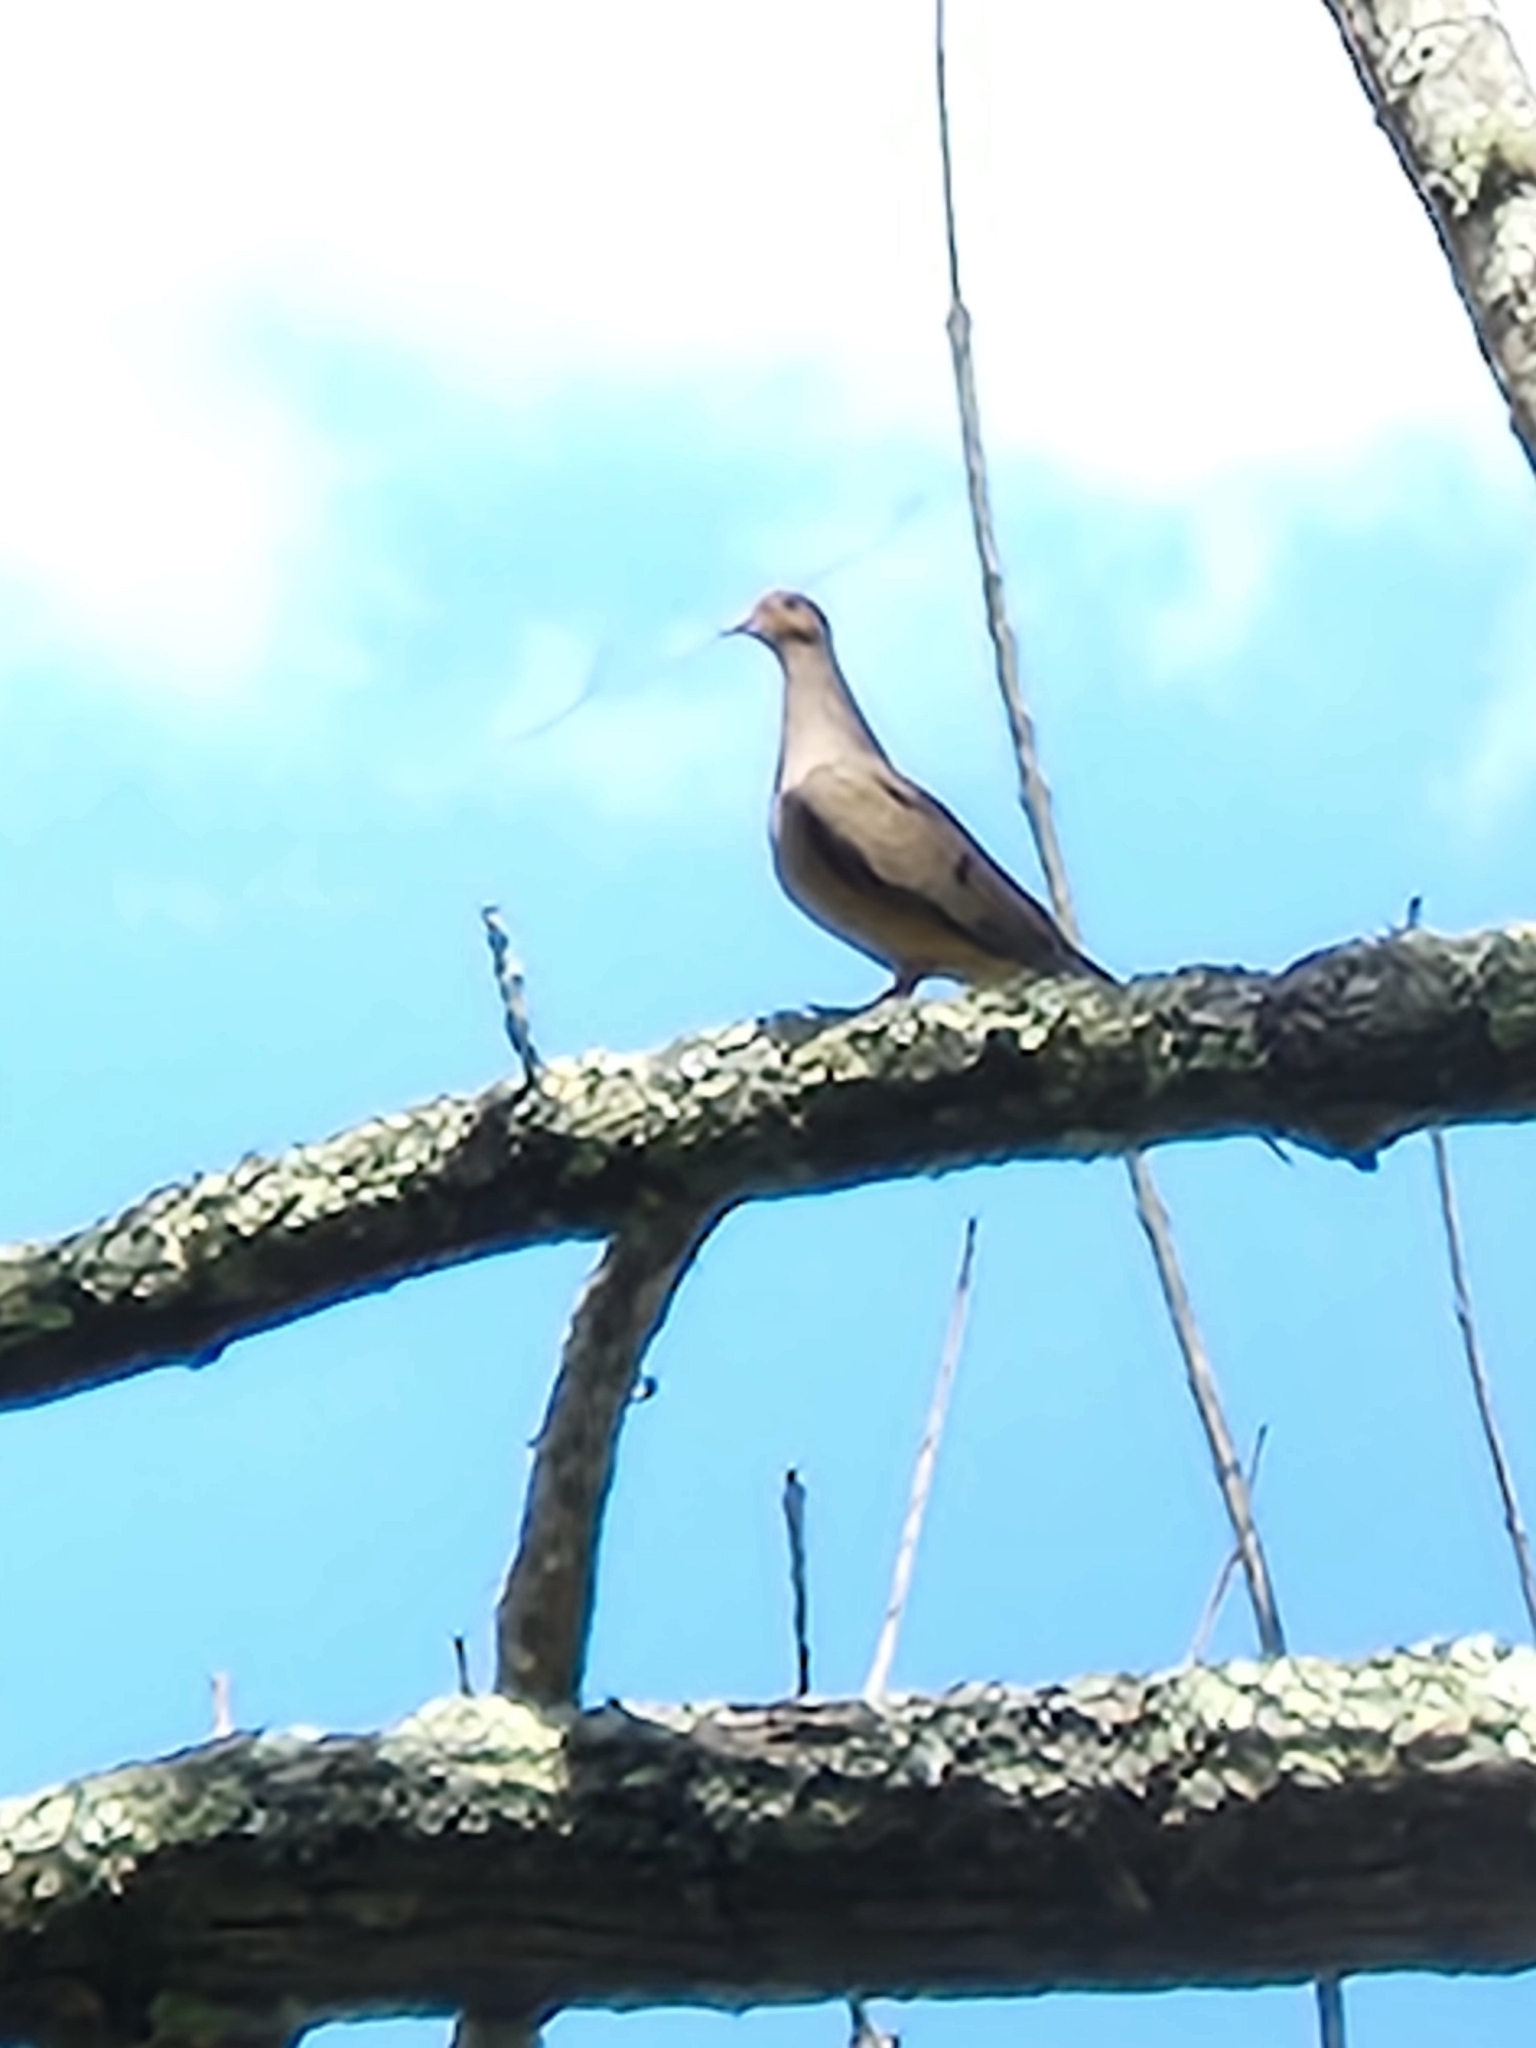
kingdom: Animalia
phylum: Chordata
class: Aves
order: Columbiformes
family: Columbidae
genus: Zenaida
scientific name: Zenaida macroura
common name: Mourning dove
